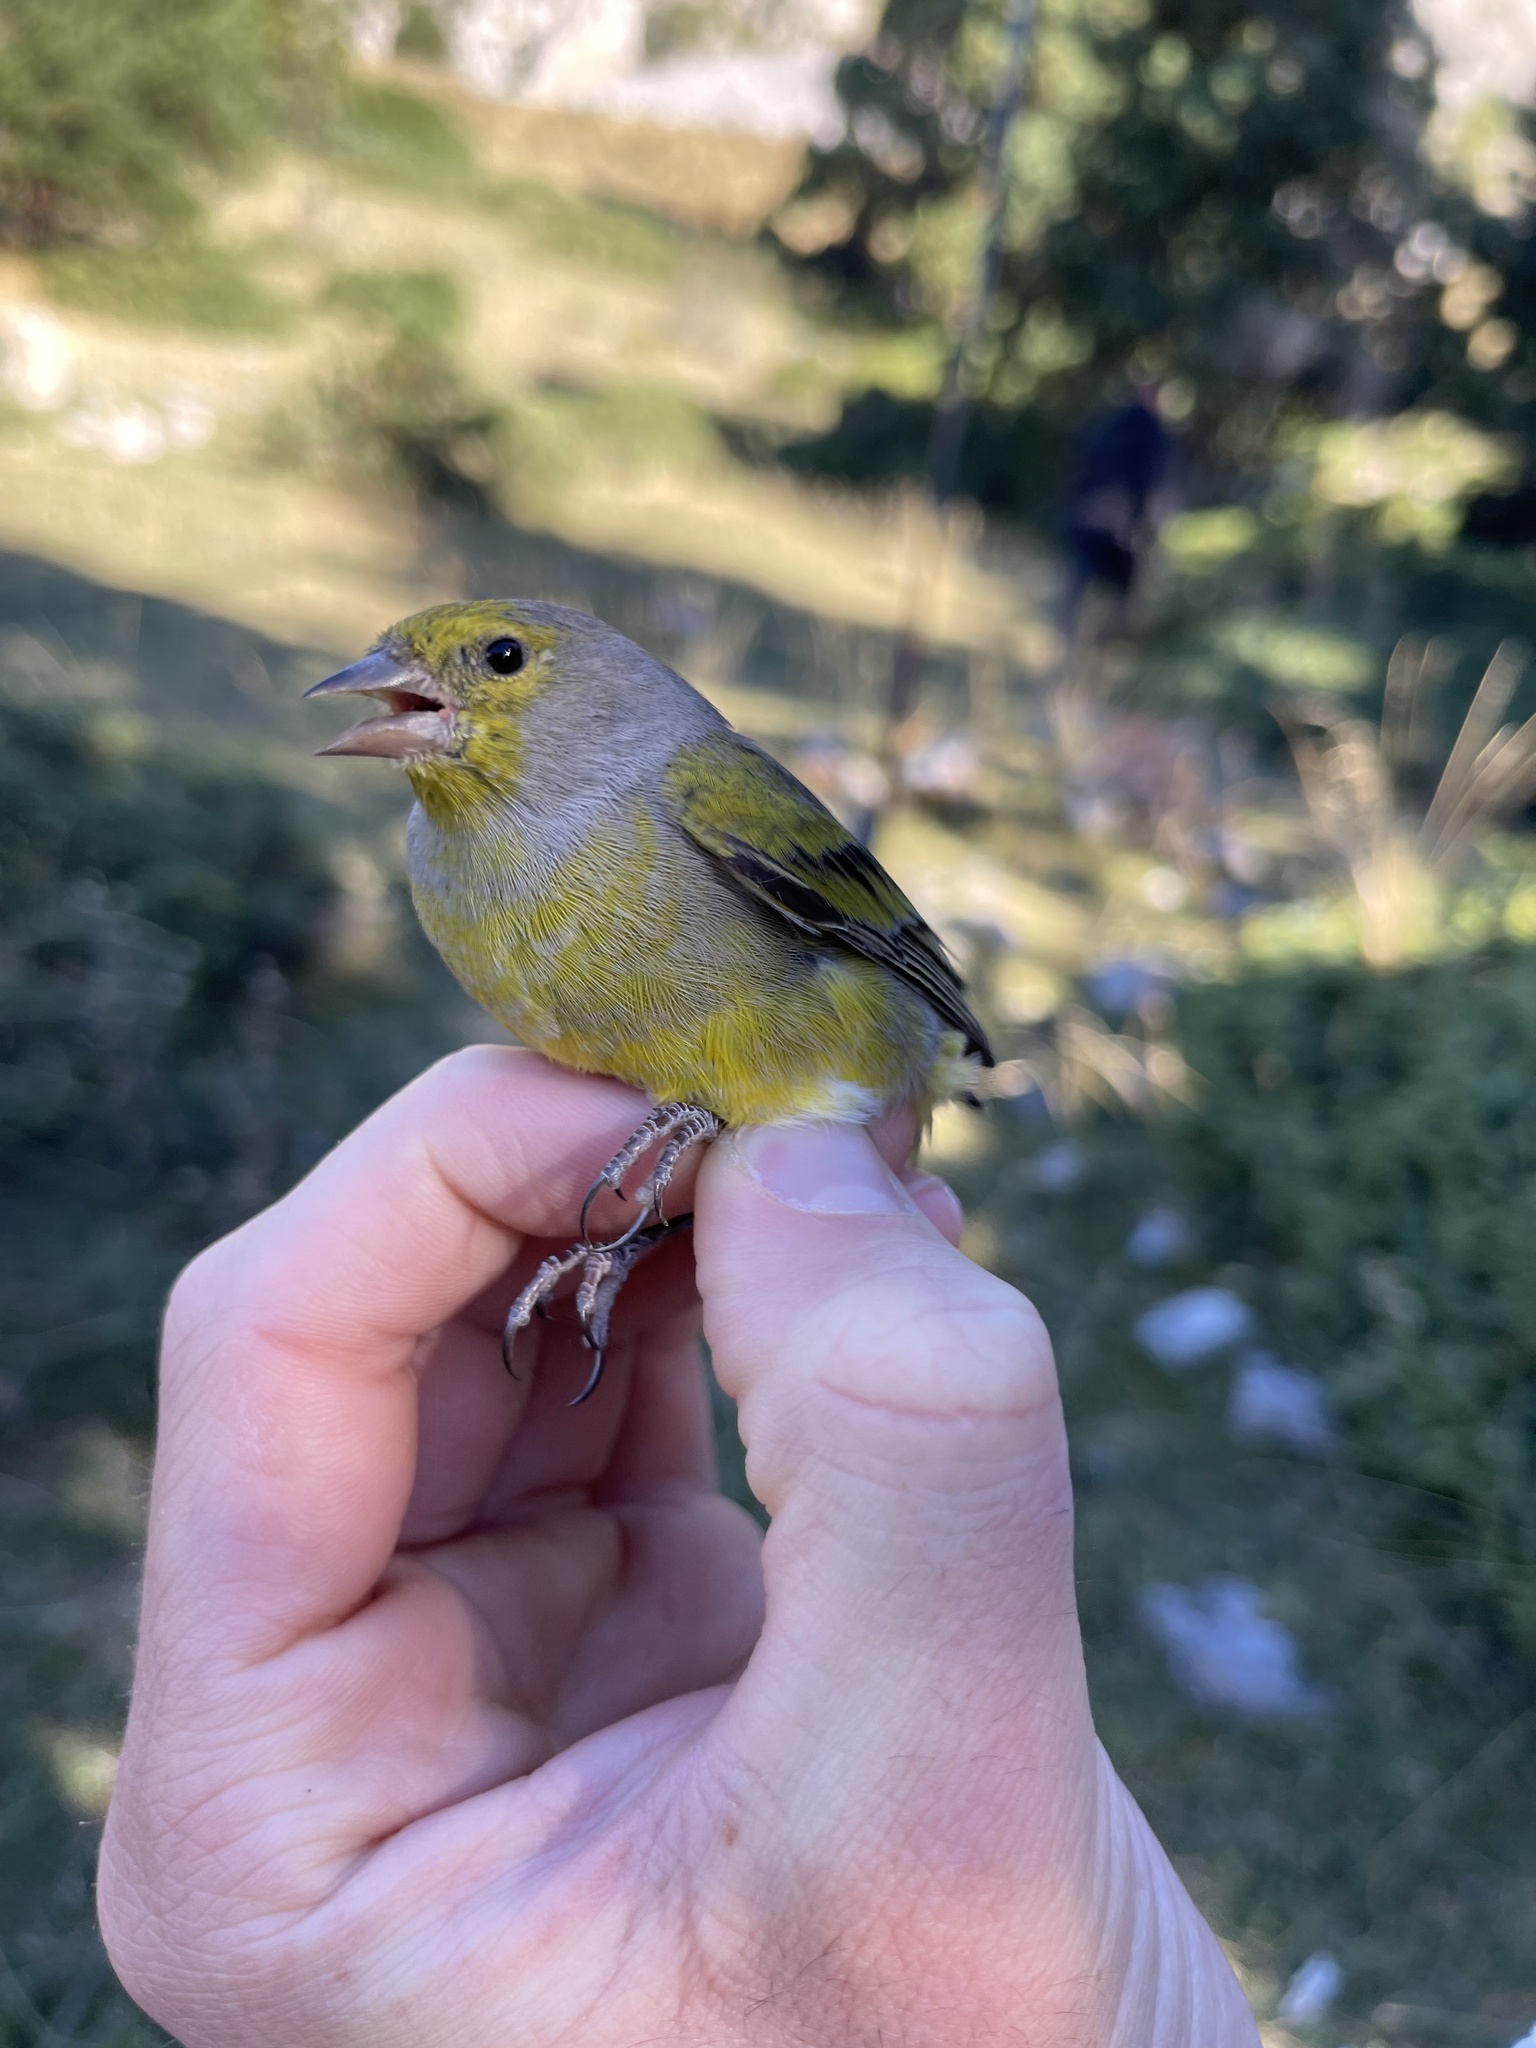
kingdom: Animalia
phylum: Chordata
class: Aves
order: Passeriformes
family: Fringillidae
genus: Carduelis
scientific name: Carduelis citrinella
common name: Citril finch
